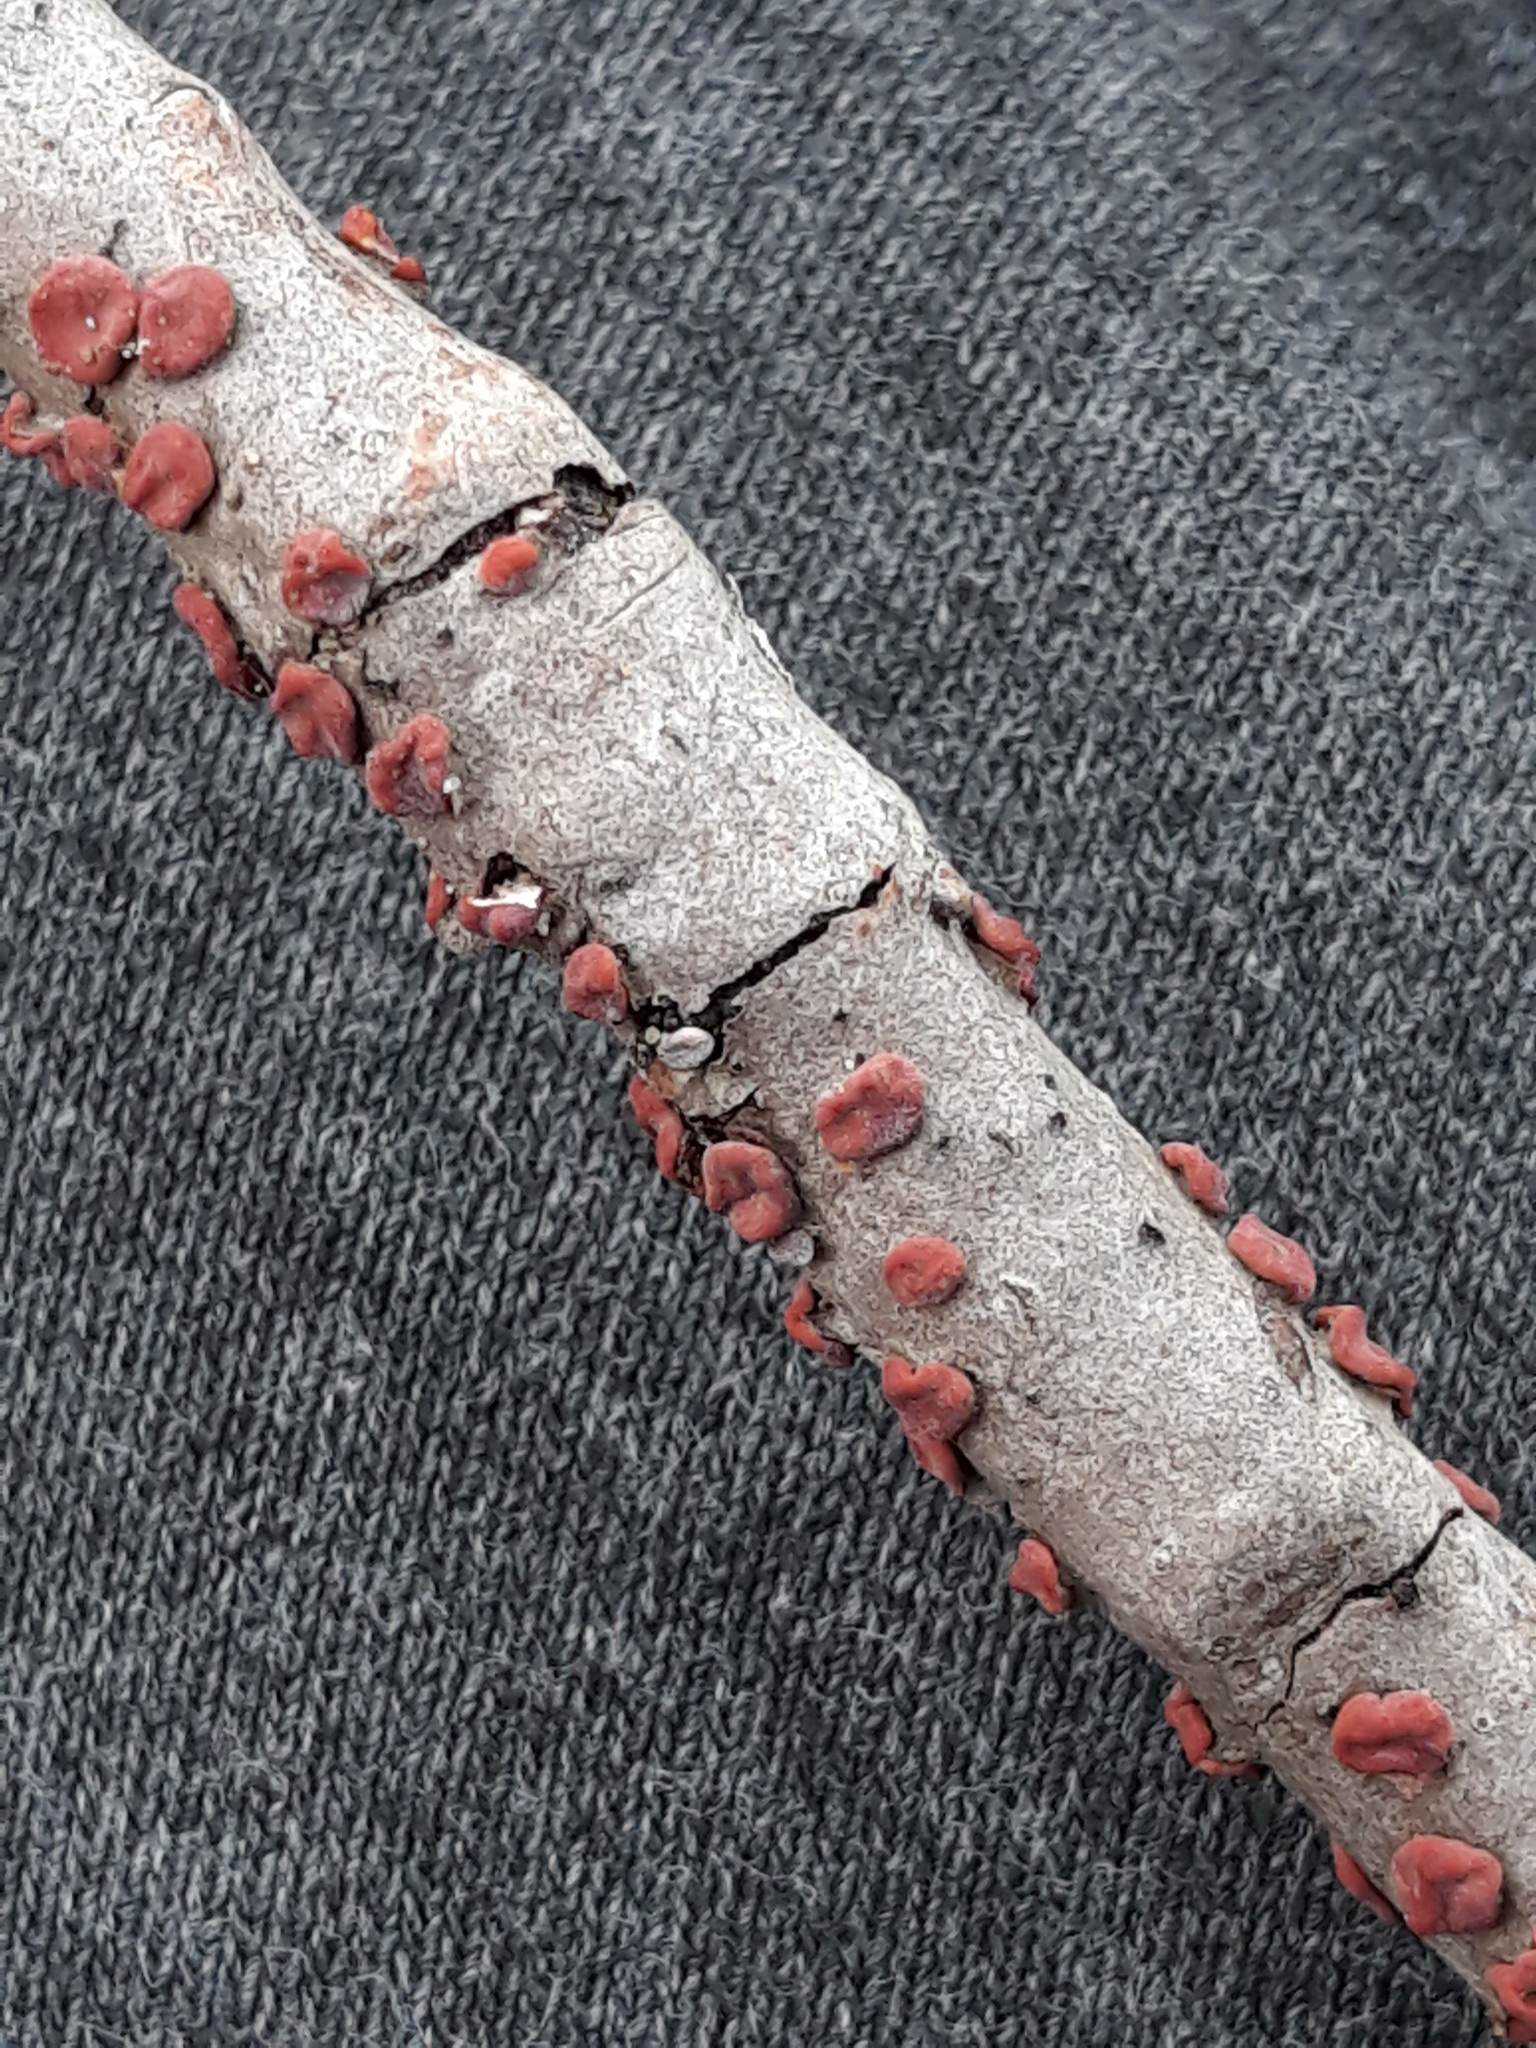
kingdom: Fungi
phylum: Basidiomycota
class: Agaricomycetes
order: Russulales
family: Peniophoraceae
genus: Peniophora
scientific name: Peniophora rufa
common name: Red tree brain fungus
